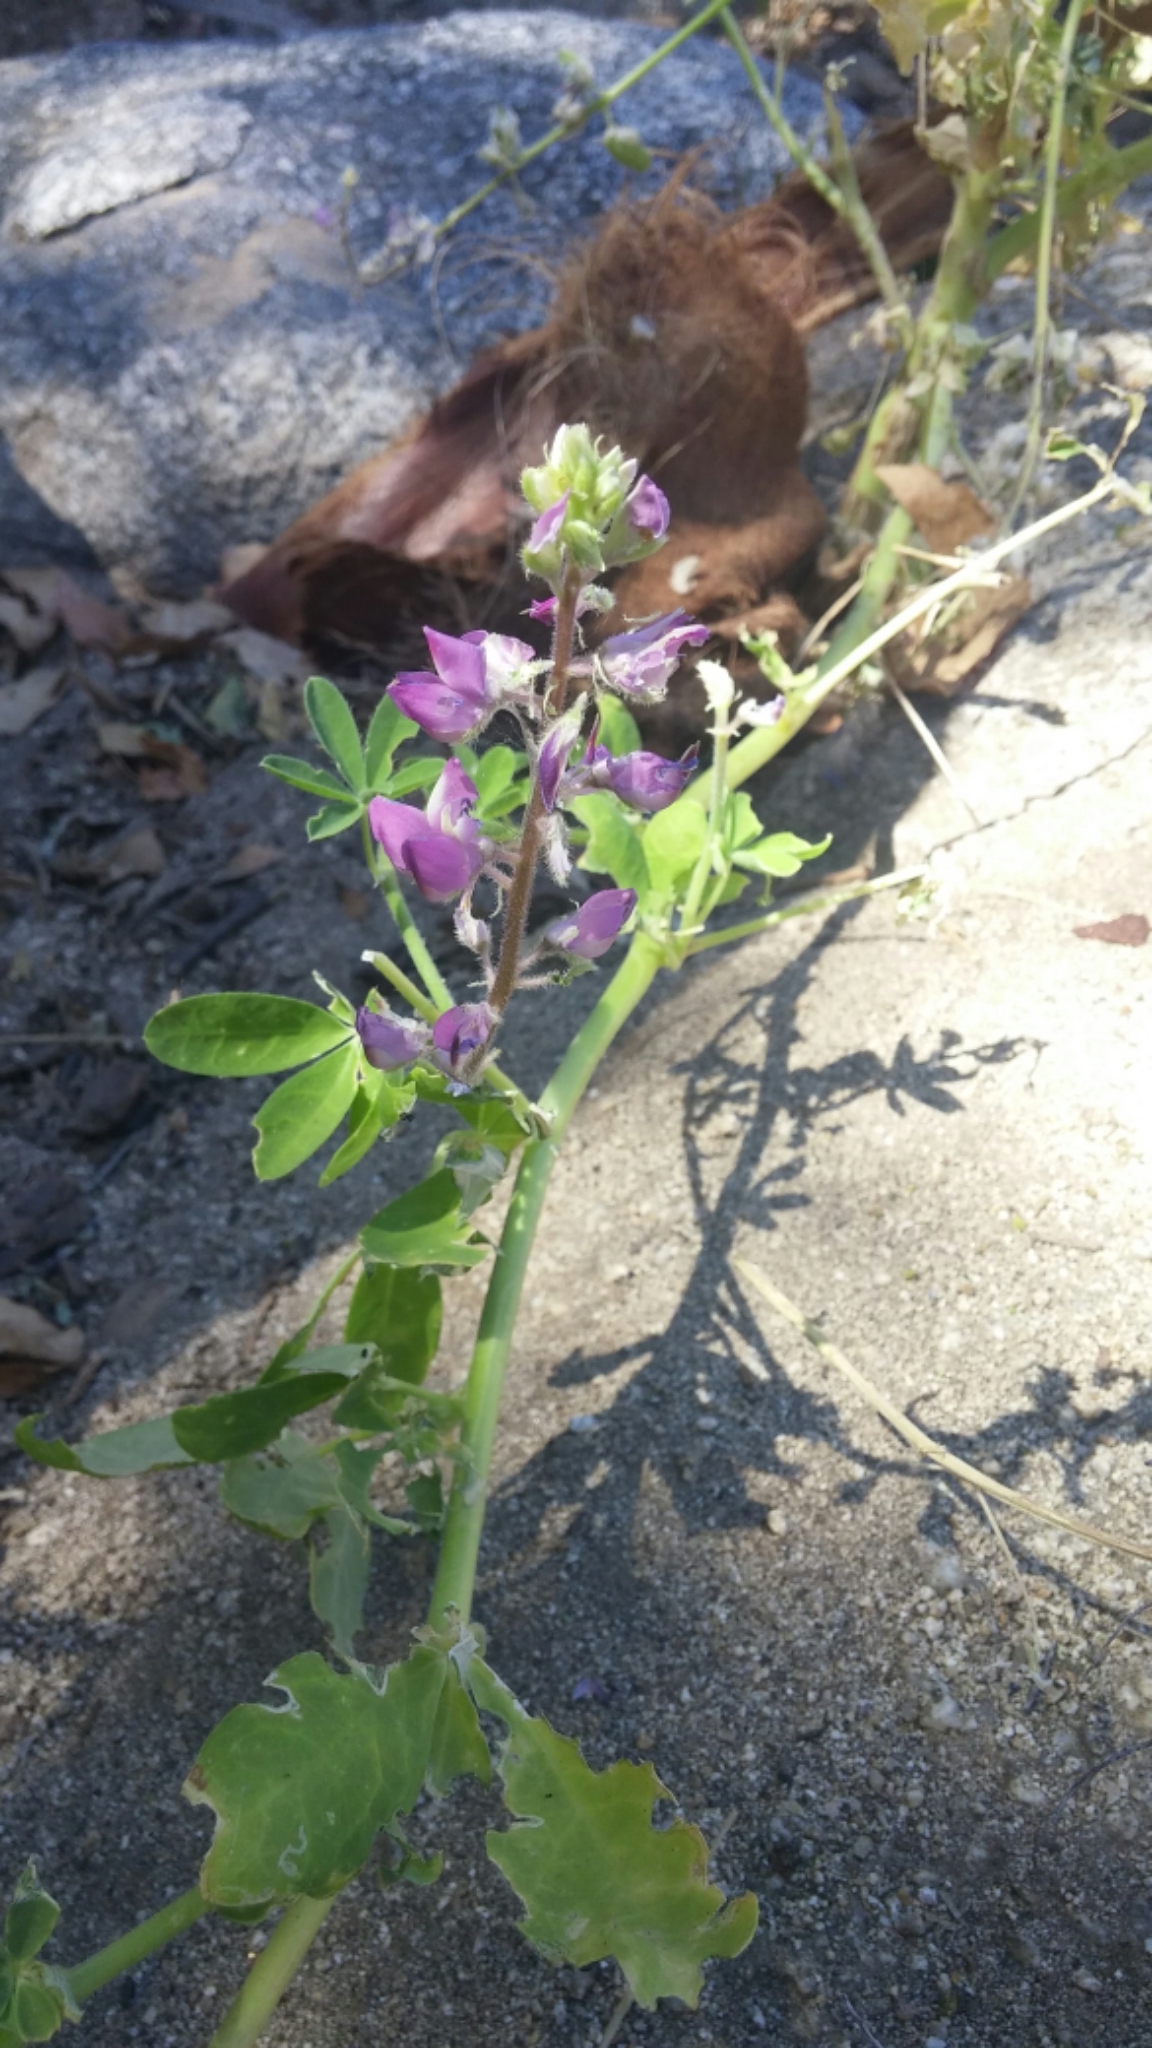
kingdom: Plantae
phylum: Tracheophyta
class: Magnoliopsida
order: Fabales
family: Fabaceae
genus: Lupinus
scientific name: Lupinus arizonicus
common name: Arizona lupine
